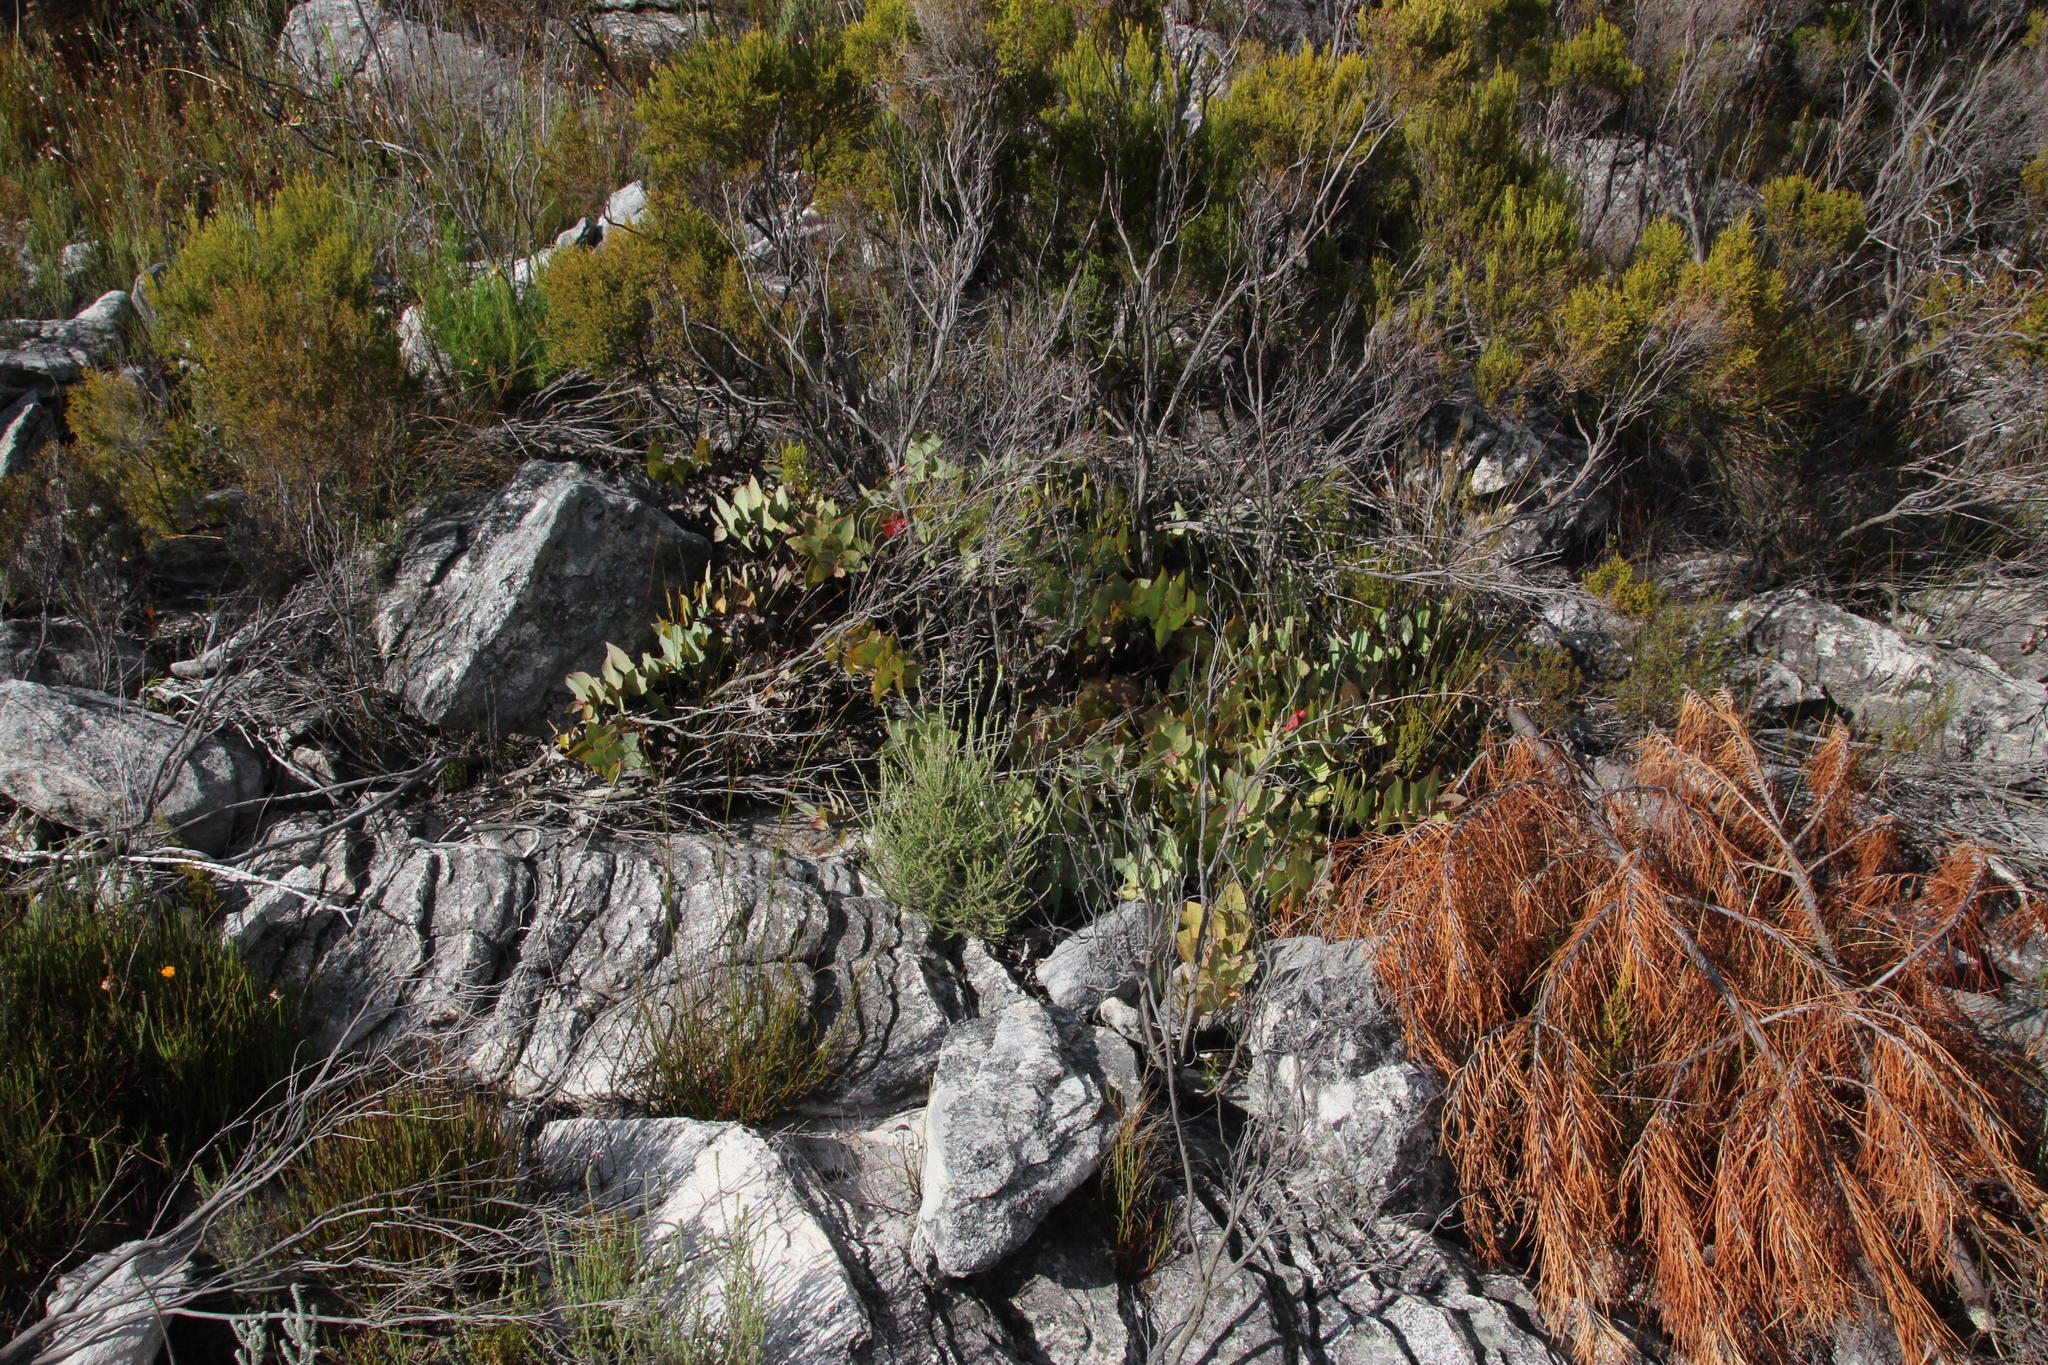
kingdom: Plantae
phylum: Tracheophyta
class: Magnoliopsida
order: Proteales
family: Proteaceae
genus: Protea
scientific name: Protea amplexicaulis
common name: Clasping-leaf sugarbush
